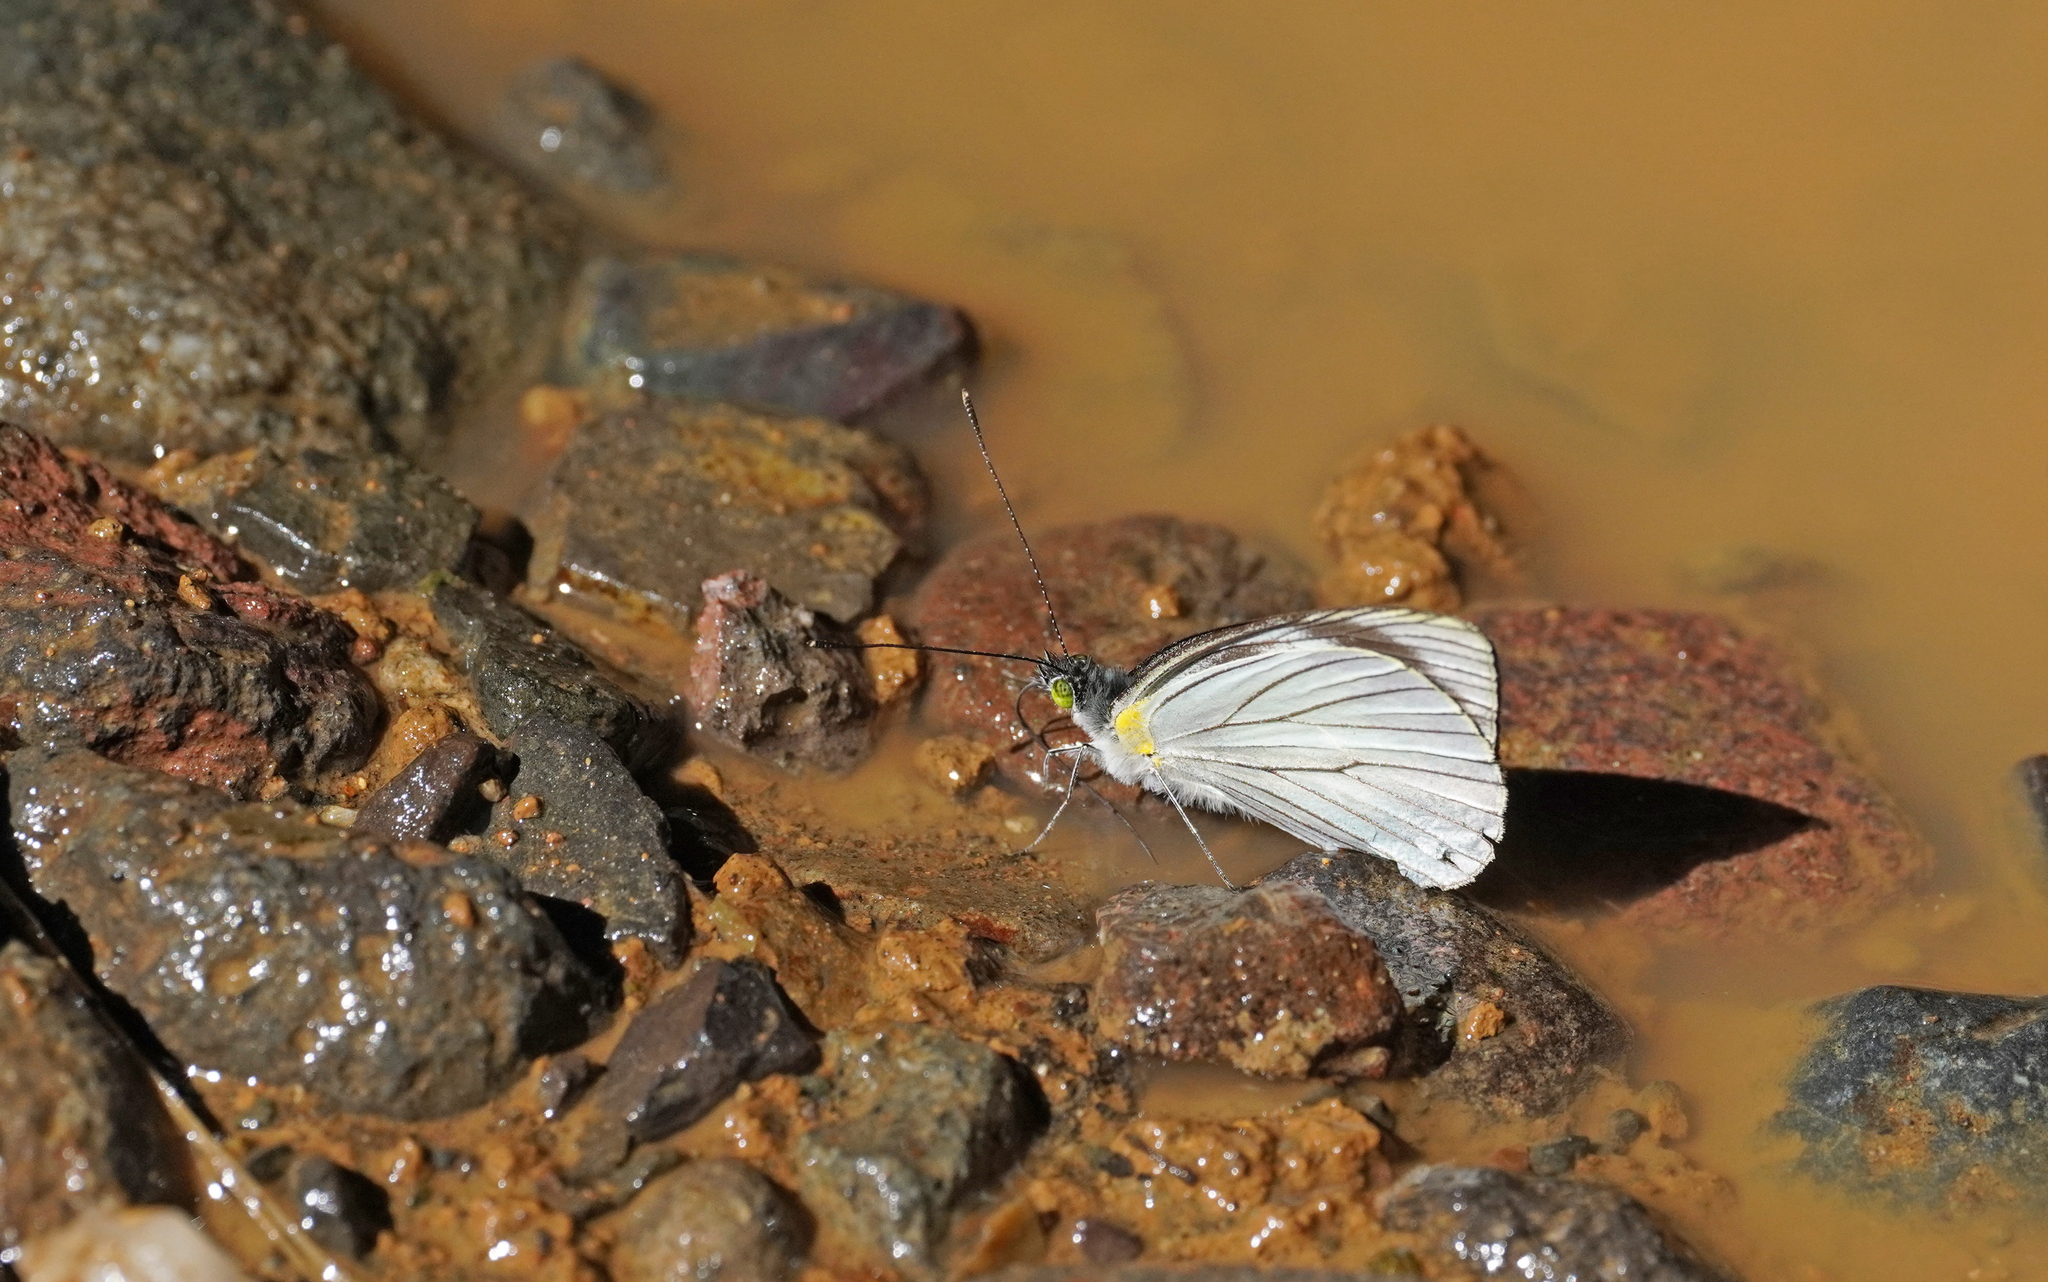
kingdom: Animalia
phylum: Arthropoda
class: Insecta
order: Lepidoptera
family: Pieridae
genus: Leptophobia
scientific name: Leptophobia tovaria
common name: Tovaria white
